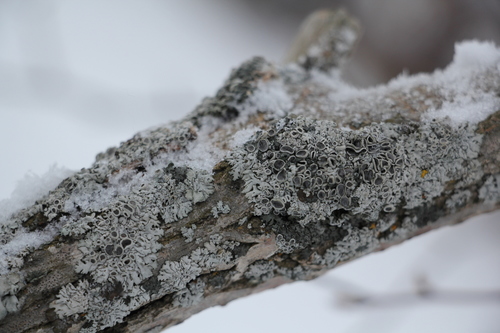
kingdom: Fungi
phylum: Ascomycota
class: Lecanoromycetes
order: Caliciales
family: Physciaceae
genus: Physcia
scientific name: Physcia
